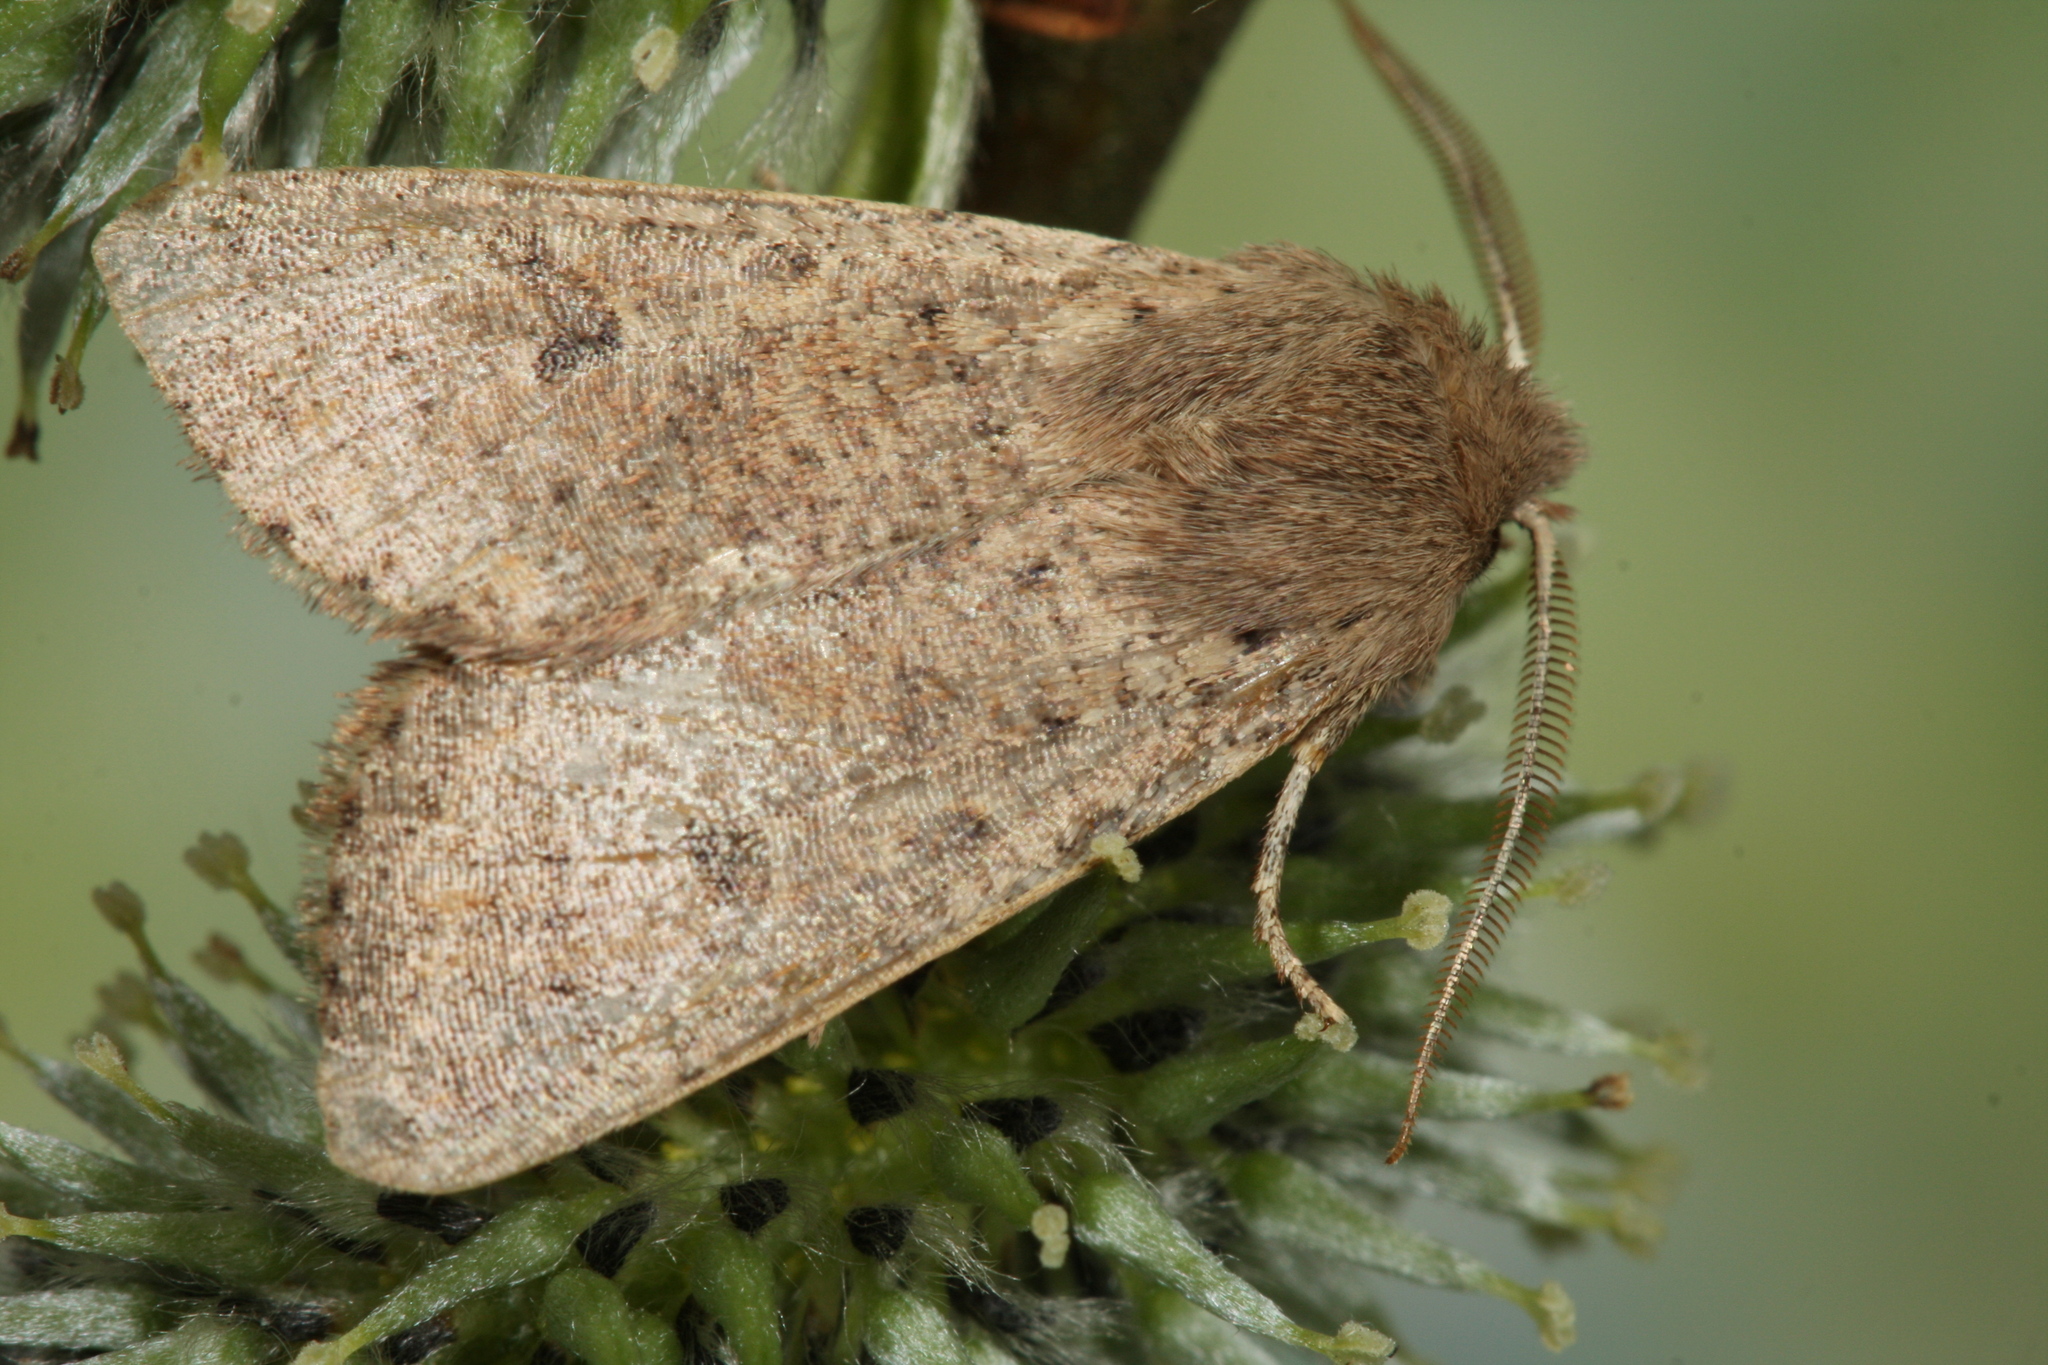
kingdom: Animalia
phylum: Arthropoda
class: Insecta
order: Lepidoptera
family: Noctuidae
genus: Orthosia
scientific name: Orthosia cruda
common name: Small quaker
